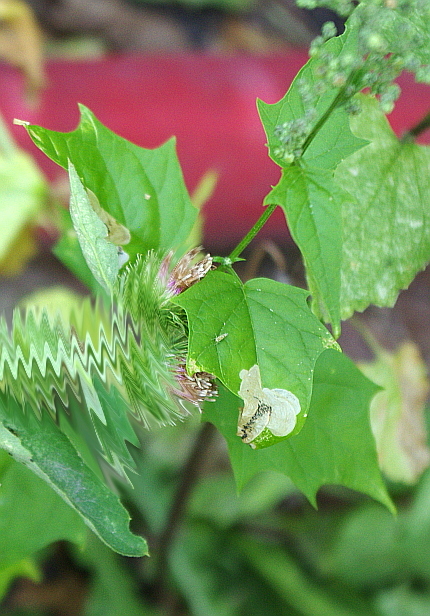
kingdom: Plantae
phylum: Tracheophyta
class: Magnoliopsida
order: Caryophyllales
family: Amaranthaceae
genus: Chenopodiastrum
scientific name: Chenopodiastrum hybridum
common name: Mapleleaf goosefoot
